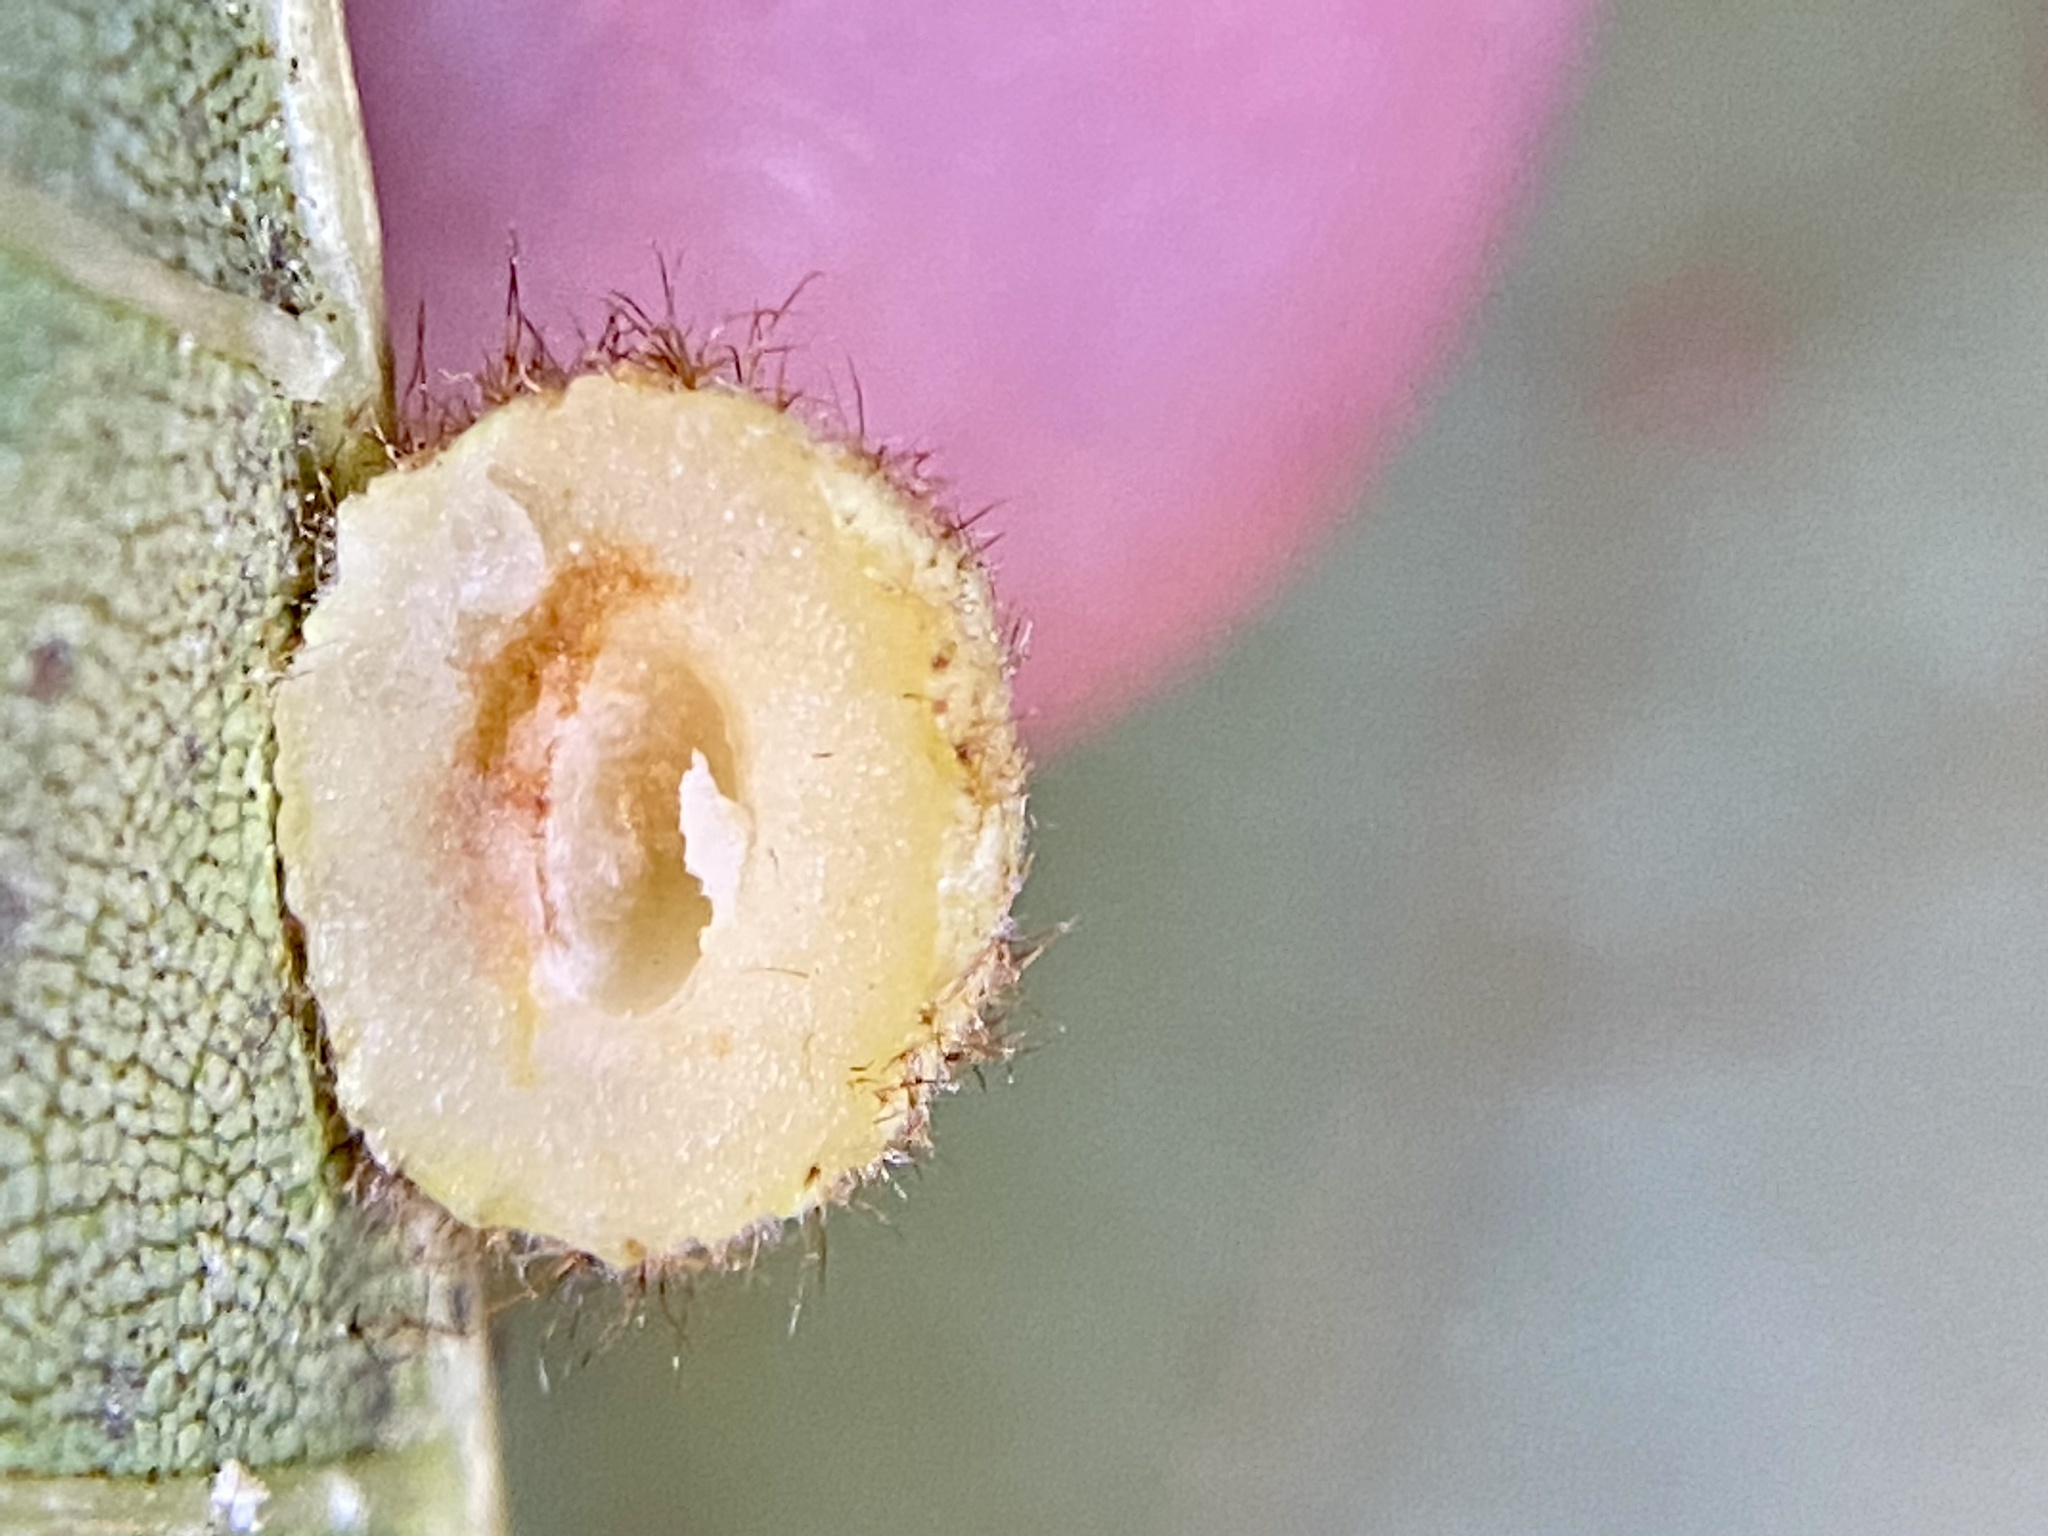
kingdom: Animalia
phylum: Arthropoda
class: Insecta
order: Diptera
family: Cecidomyiidae
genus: Caryomyia
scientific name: Caryomyia spherica
